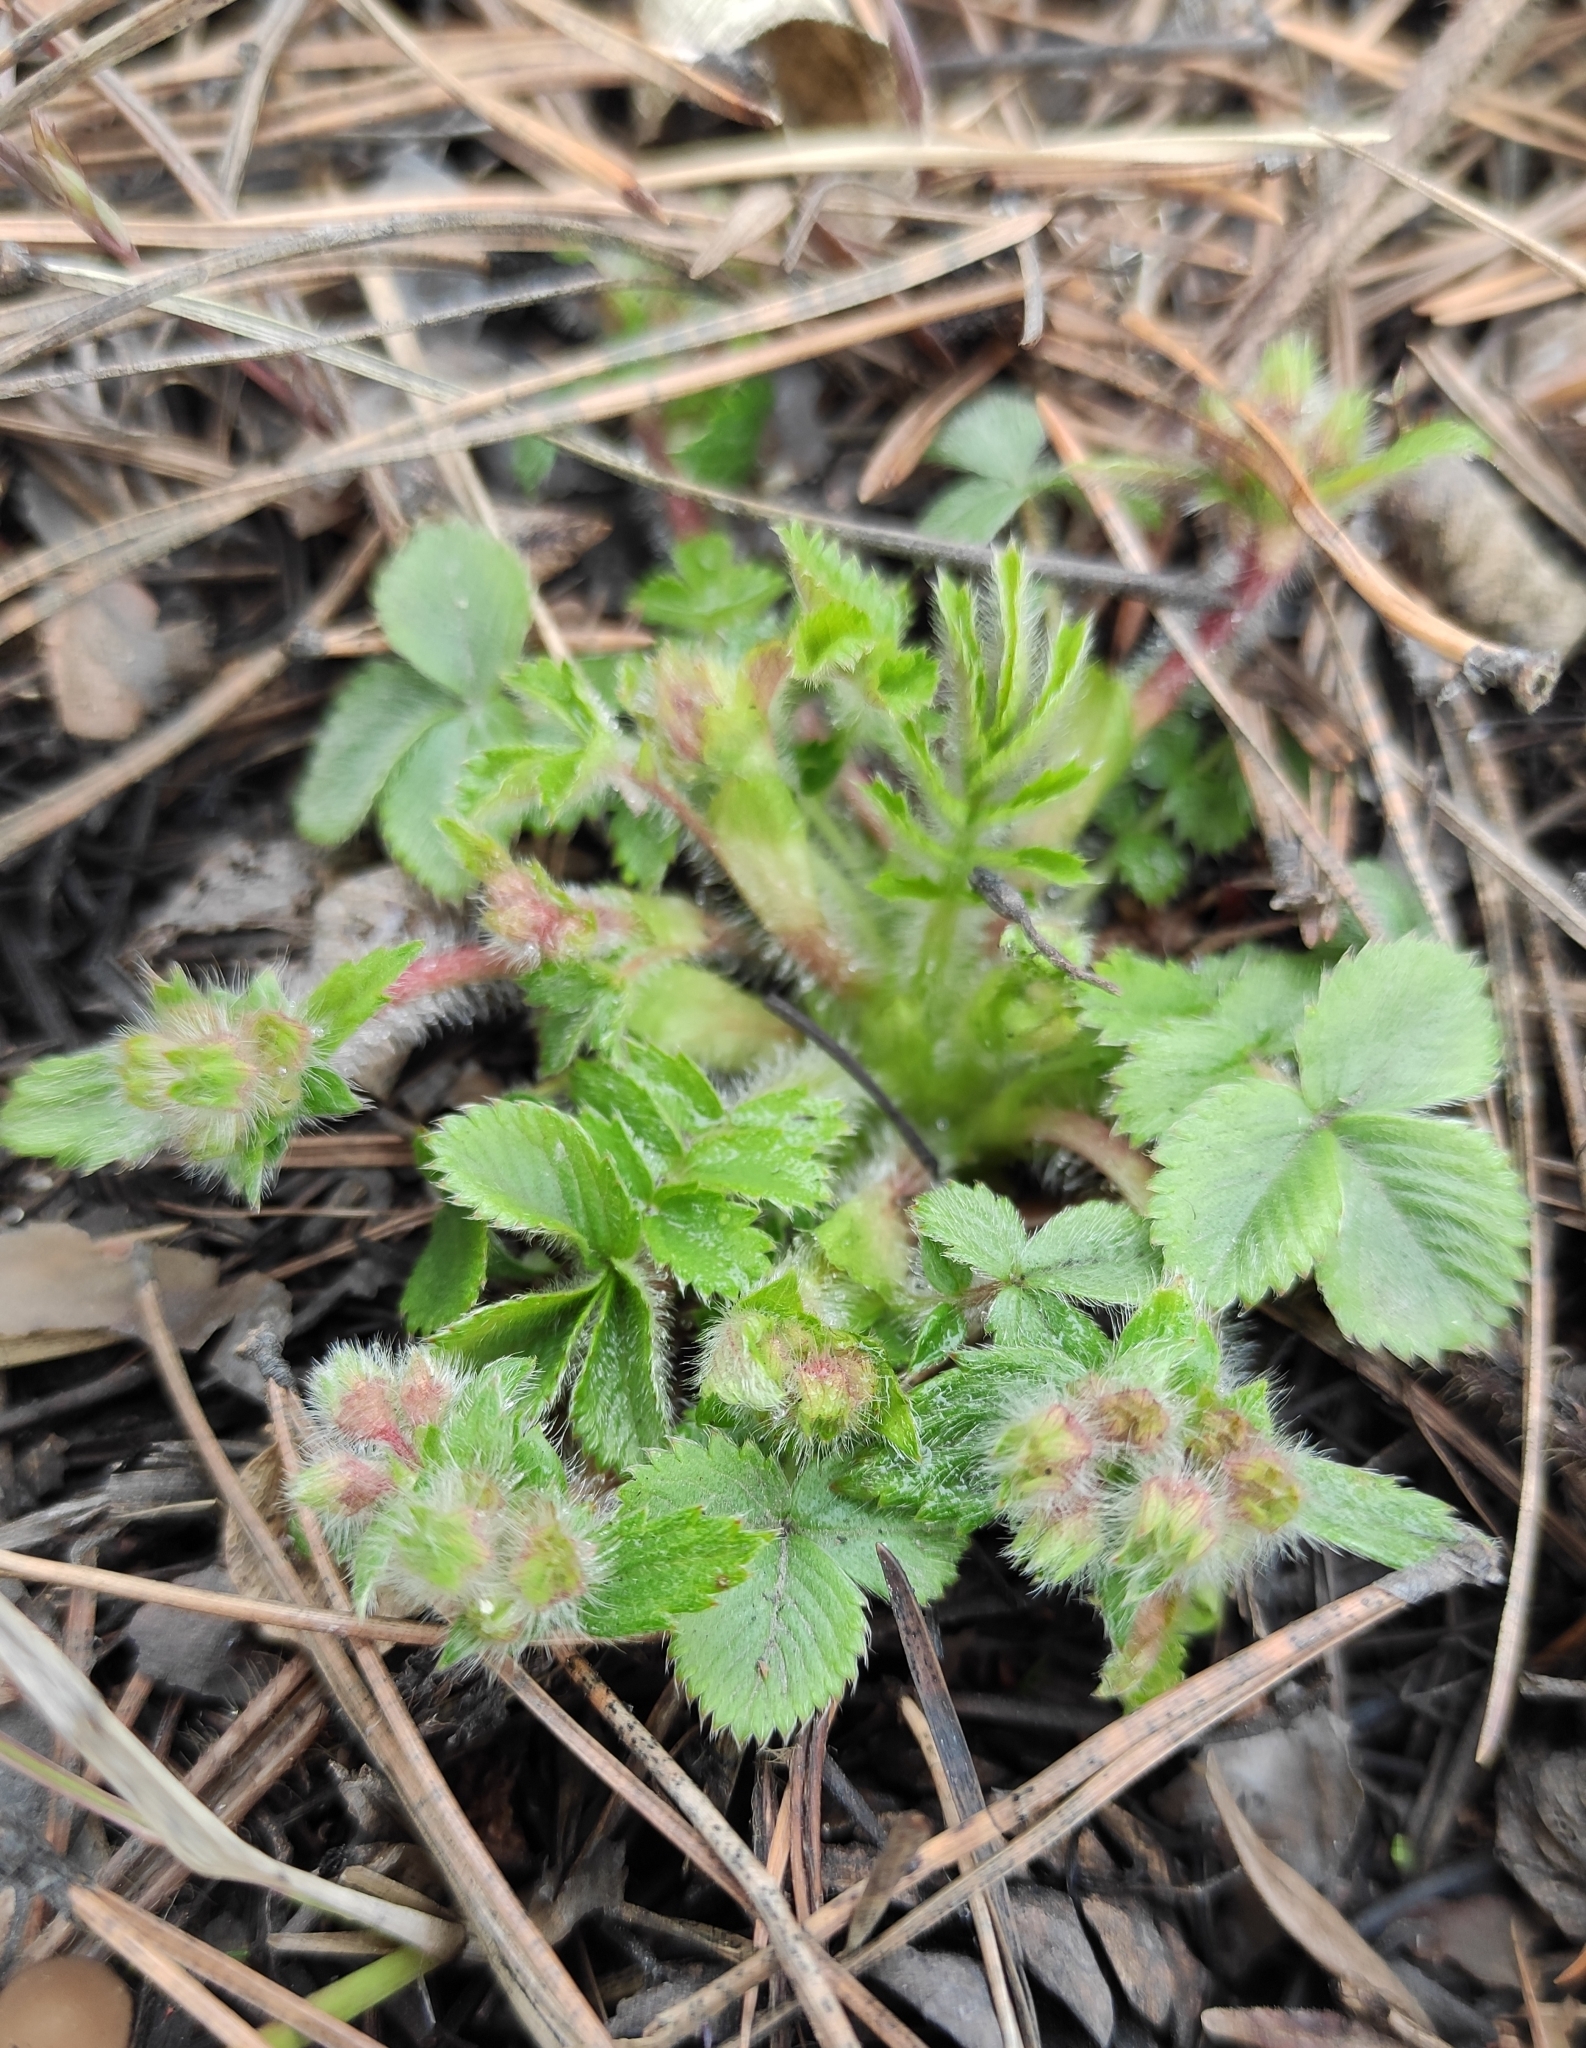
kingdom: Plantae
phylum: Tracheophyta
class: Magnoliopsida
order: Rosales
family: Rosaceae
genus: Potentilla
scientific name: Potentilla fragarioides
